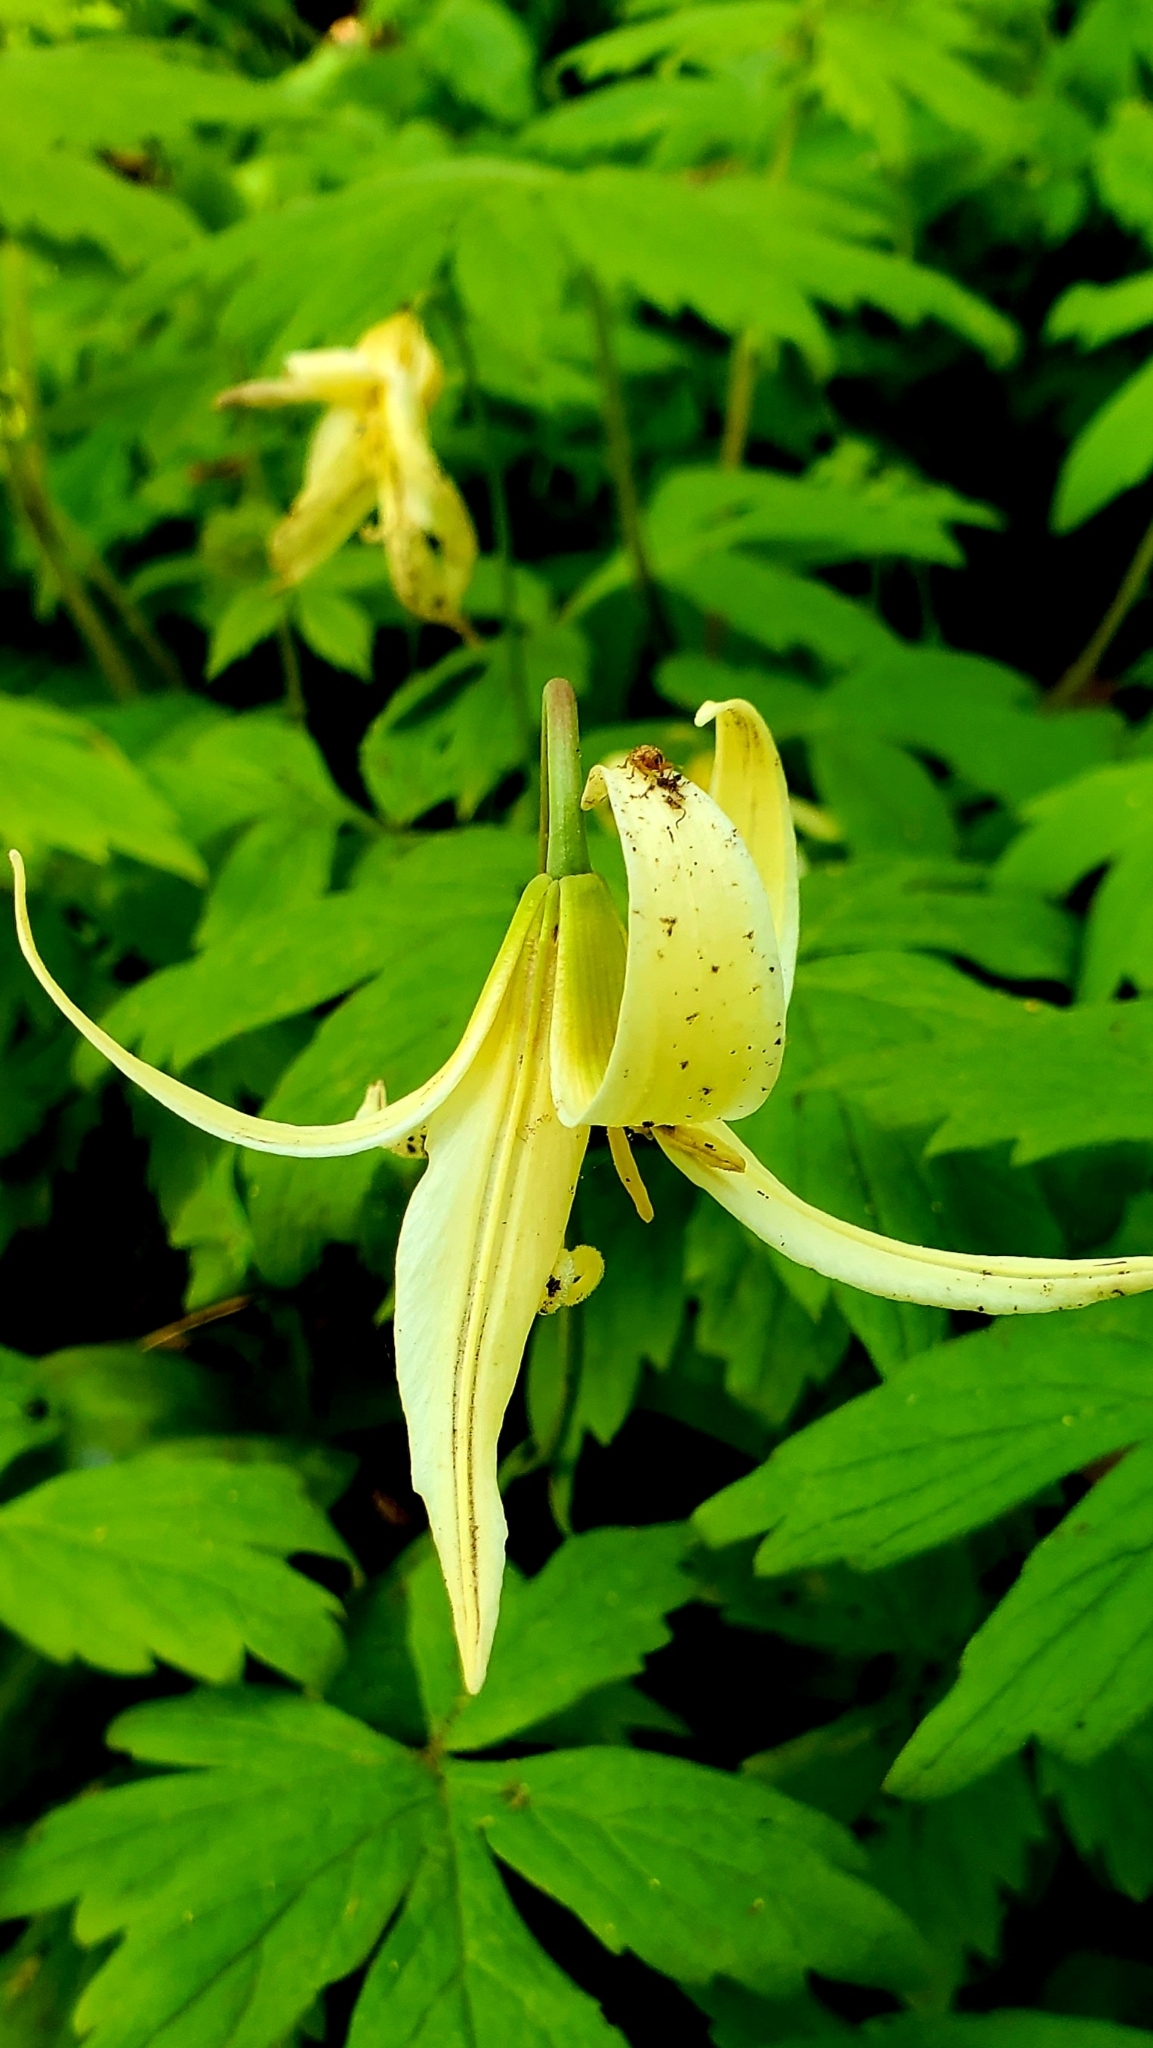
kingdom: Plantae
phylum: Tracheophyta
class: Liliopsida
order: Liliales
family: Liliaceae
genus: Erythronium
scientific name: Erythronium oregonum
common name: Giant adder's-tongue
